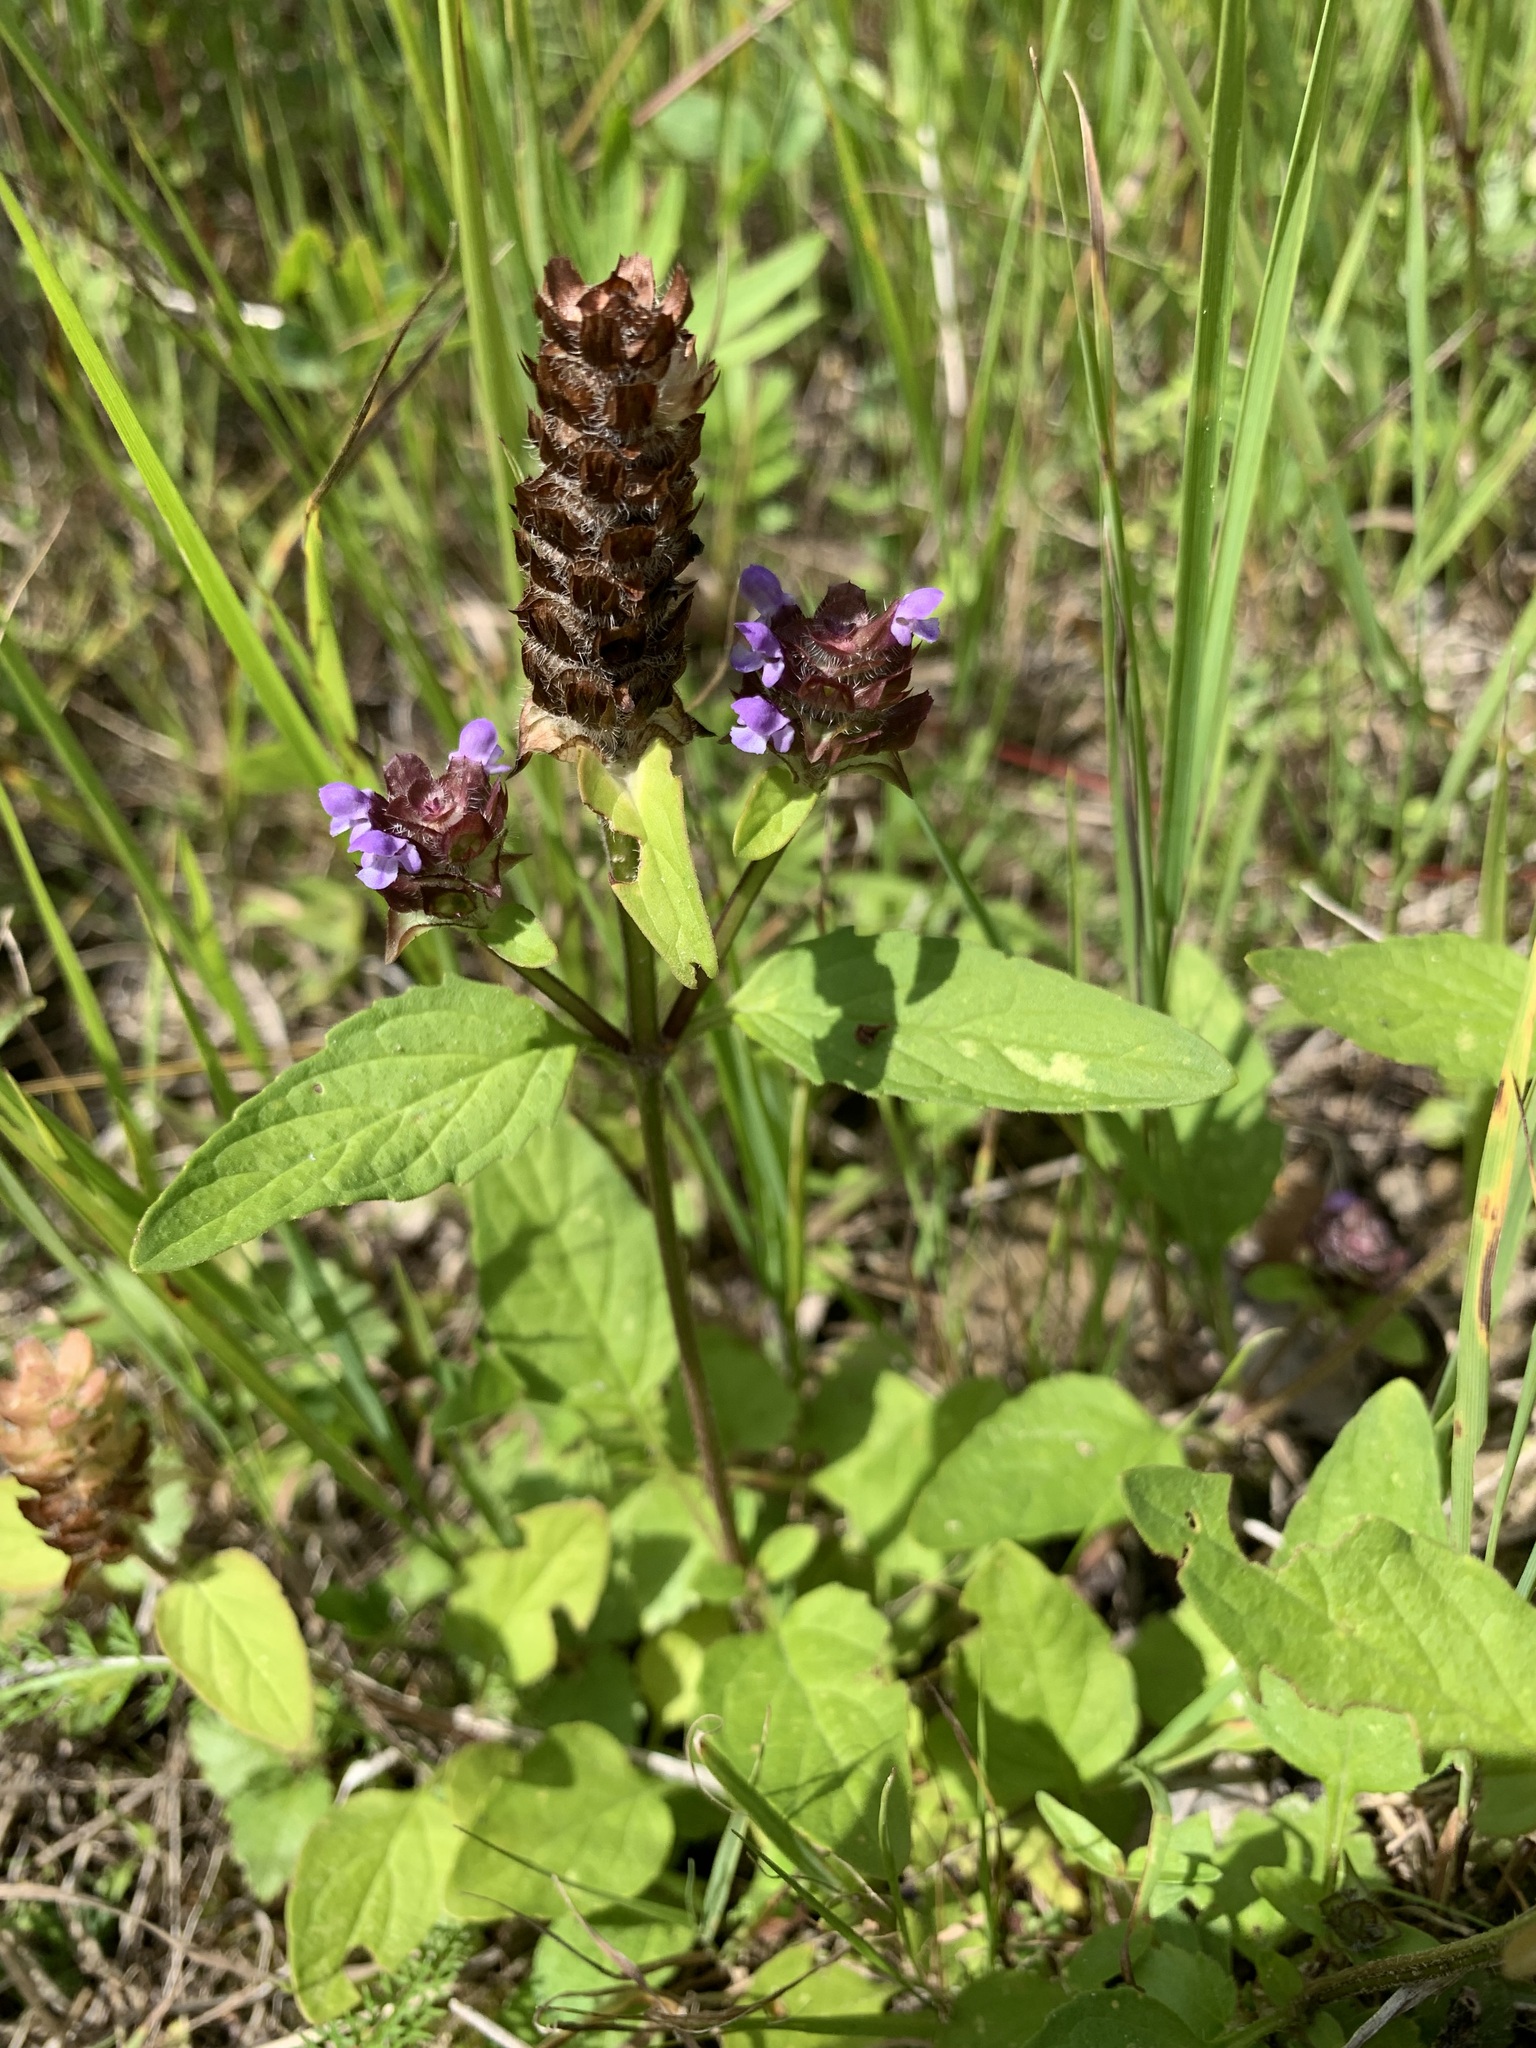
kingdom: Plantae
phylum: Tracheophyta
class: Magnoliopsida
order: Lamiales
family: Lamiaceae
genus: Prunella
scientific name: Prunella vulgaris
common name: Heal-all
